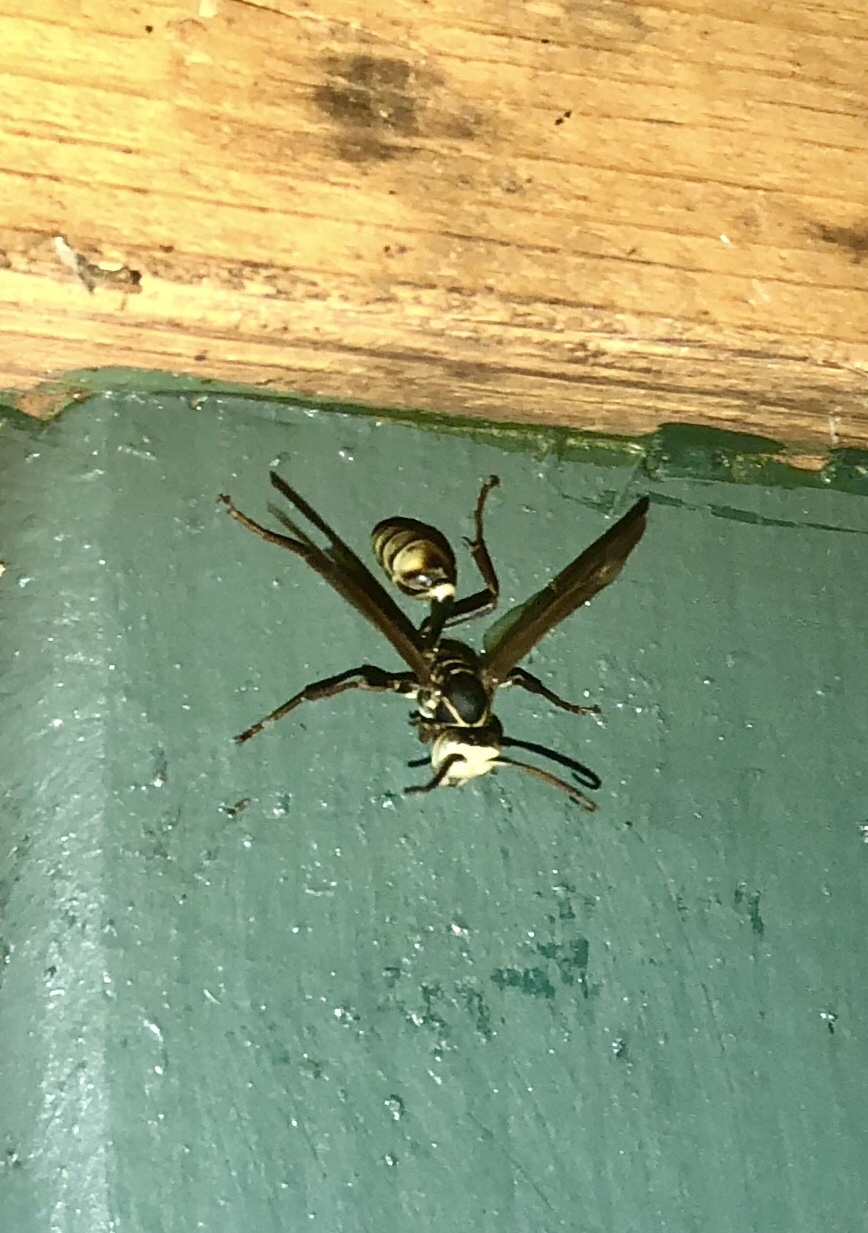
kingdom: Animalia
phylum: Arthropoda
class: Insecta
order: Hymenoptera
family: Vespidae
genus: Mischocyttarus
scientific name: Mischocyttarus flavitarsis
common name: Wasp
